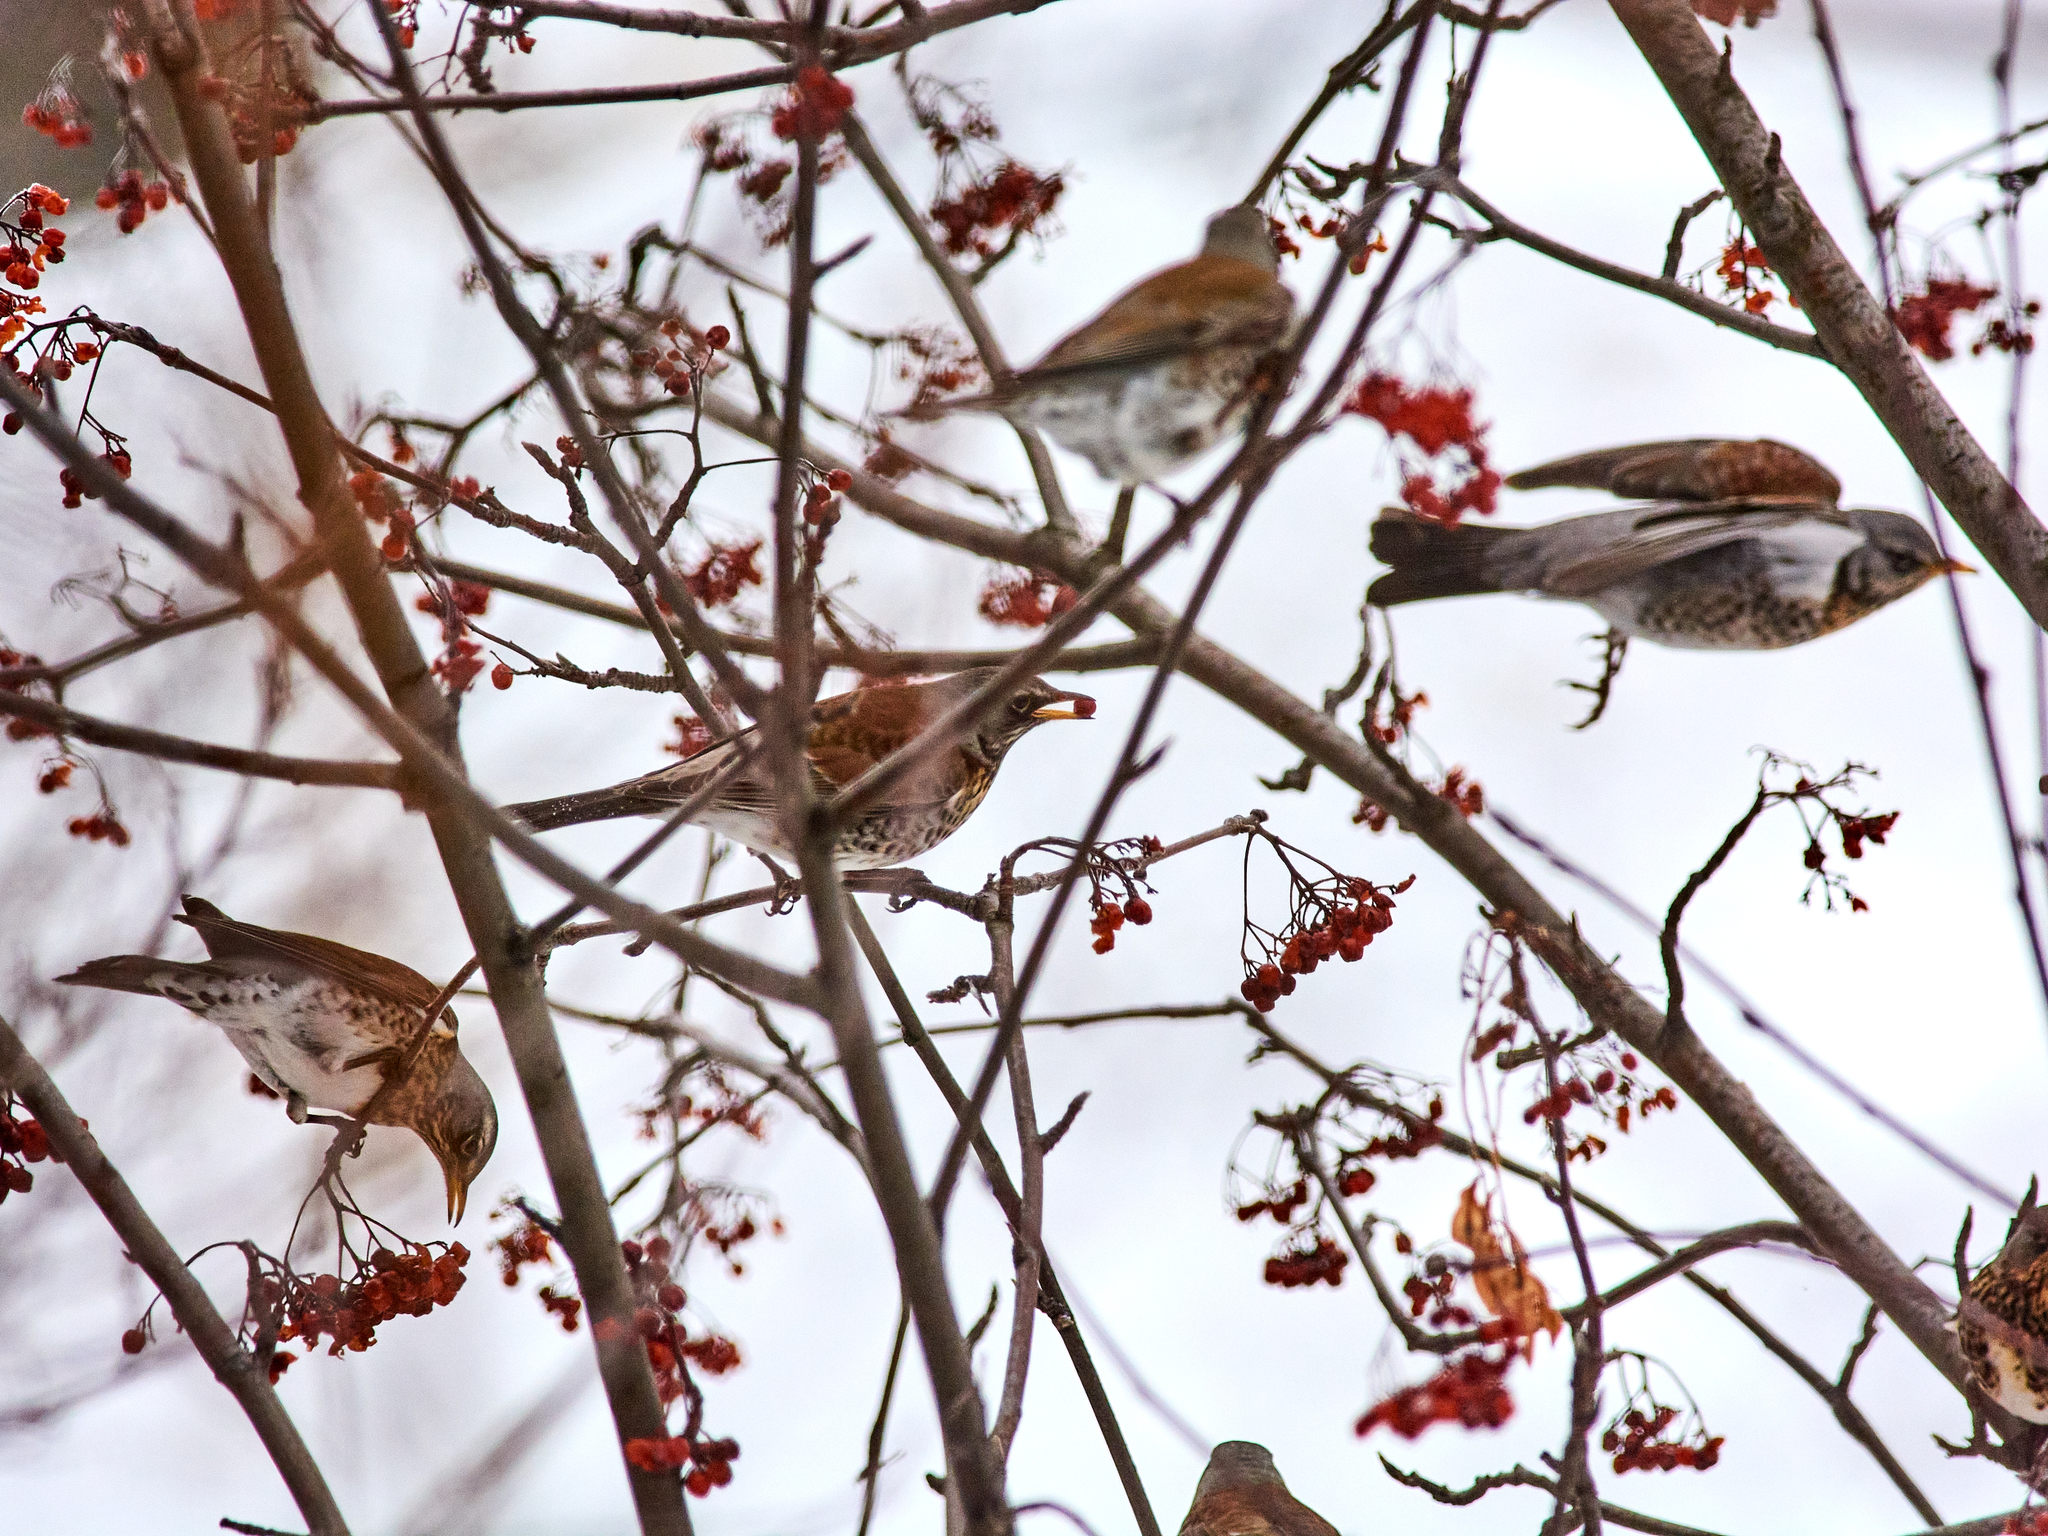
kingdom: Animalia
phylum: Chordata
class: Aves
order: Passeriformes
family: Turdidae
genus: Turdus
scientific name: Turdus pilaris
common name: Fieldfare
